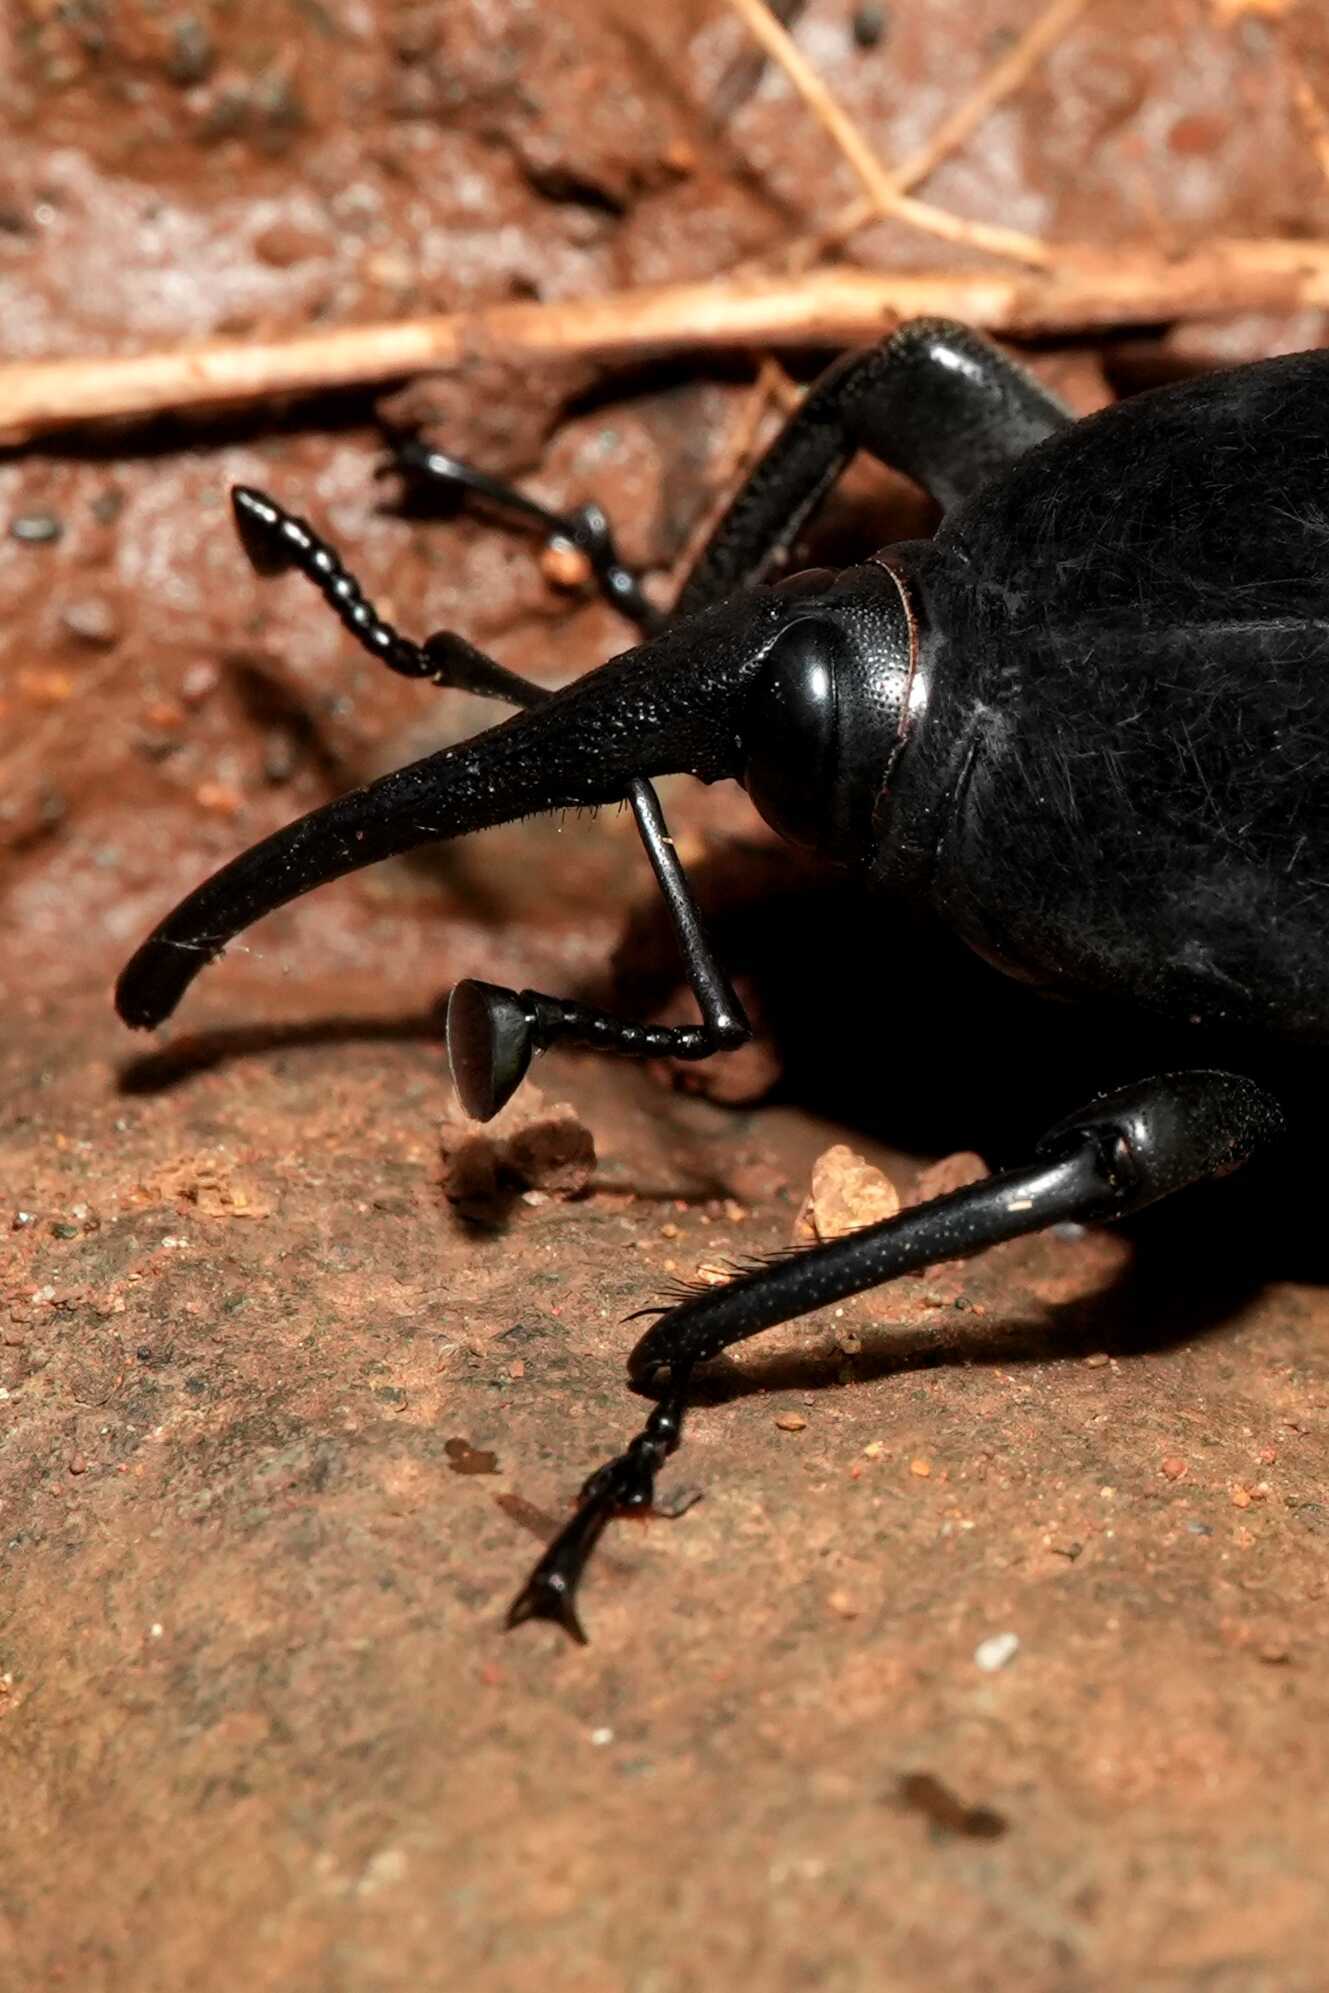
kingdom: Animalia
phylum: Arthropoda
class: Insecta
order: Coleoptera
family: Dryophthoridae
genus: Rhynchophorus
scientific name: Rhynchophorus palmarum
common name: Palm weevil
